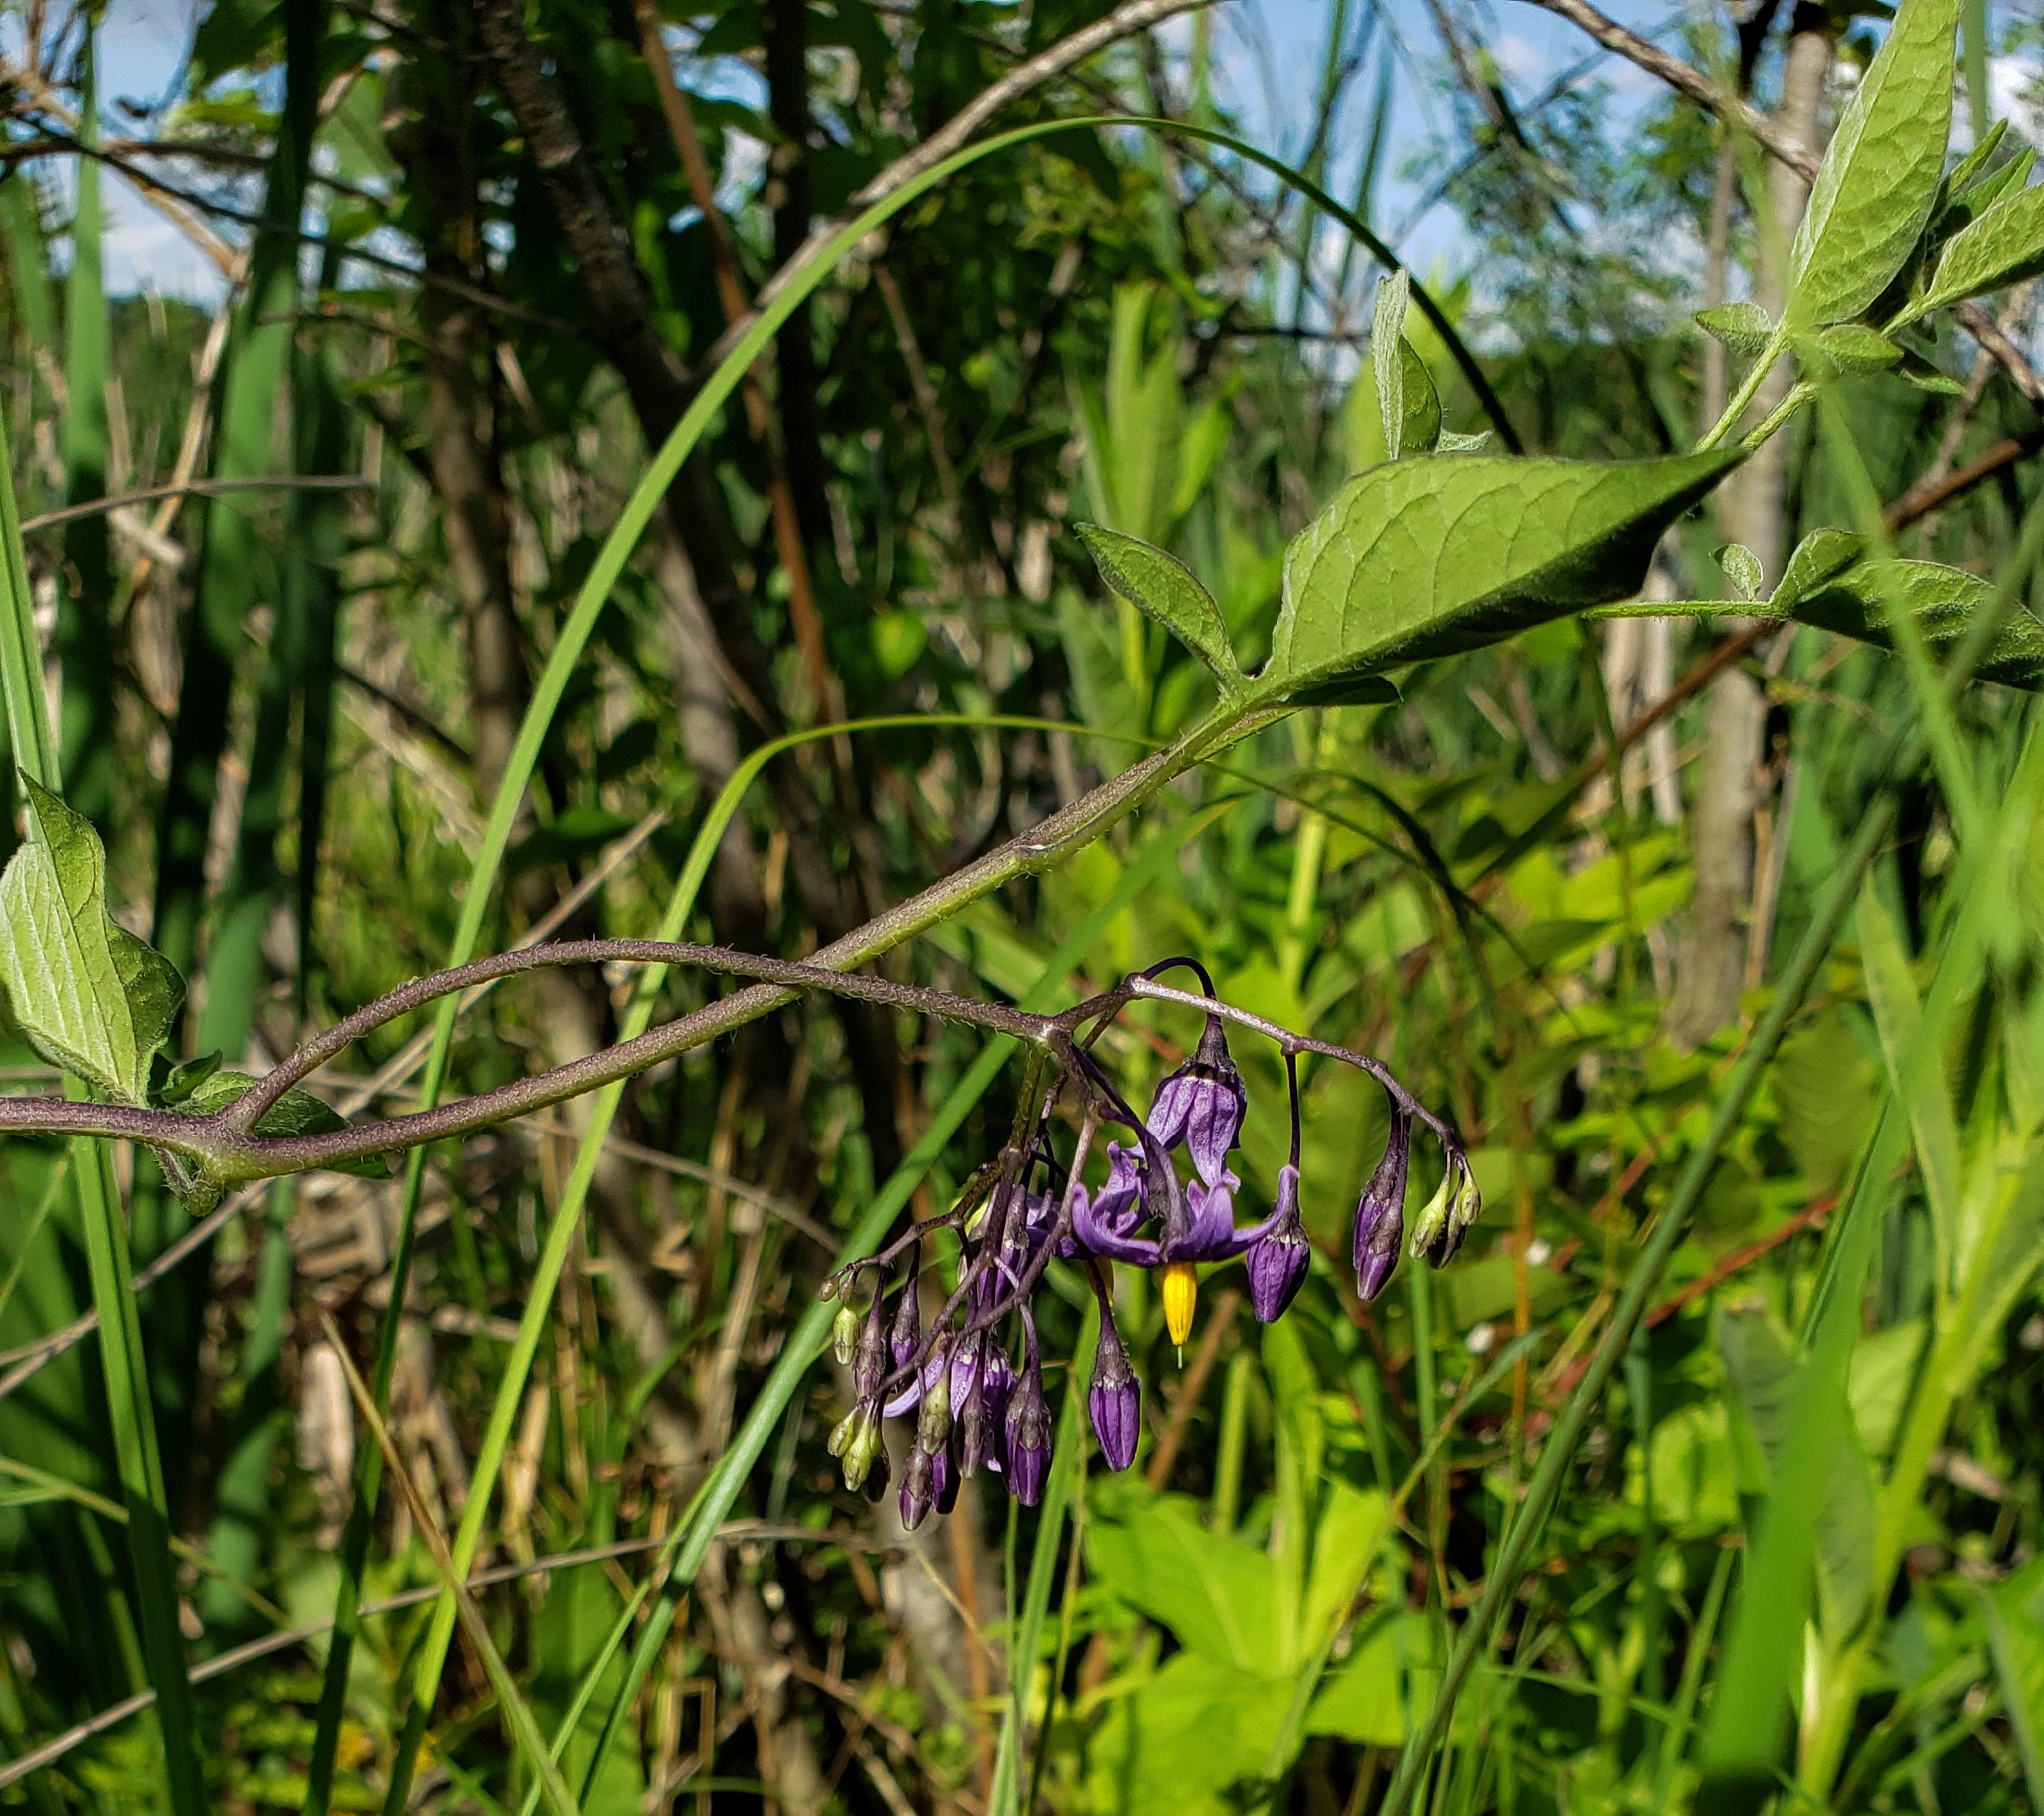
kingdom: Plantae
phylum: Tracheophyta
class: Magnoliopsida
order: Solanales
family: Solanaceae
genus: Solanum
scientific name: Solanum dulcamara
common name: Climbing nightshade
